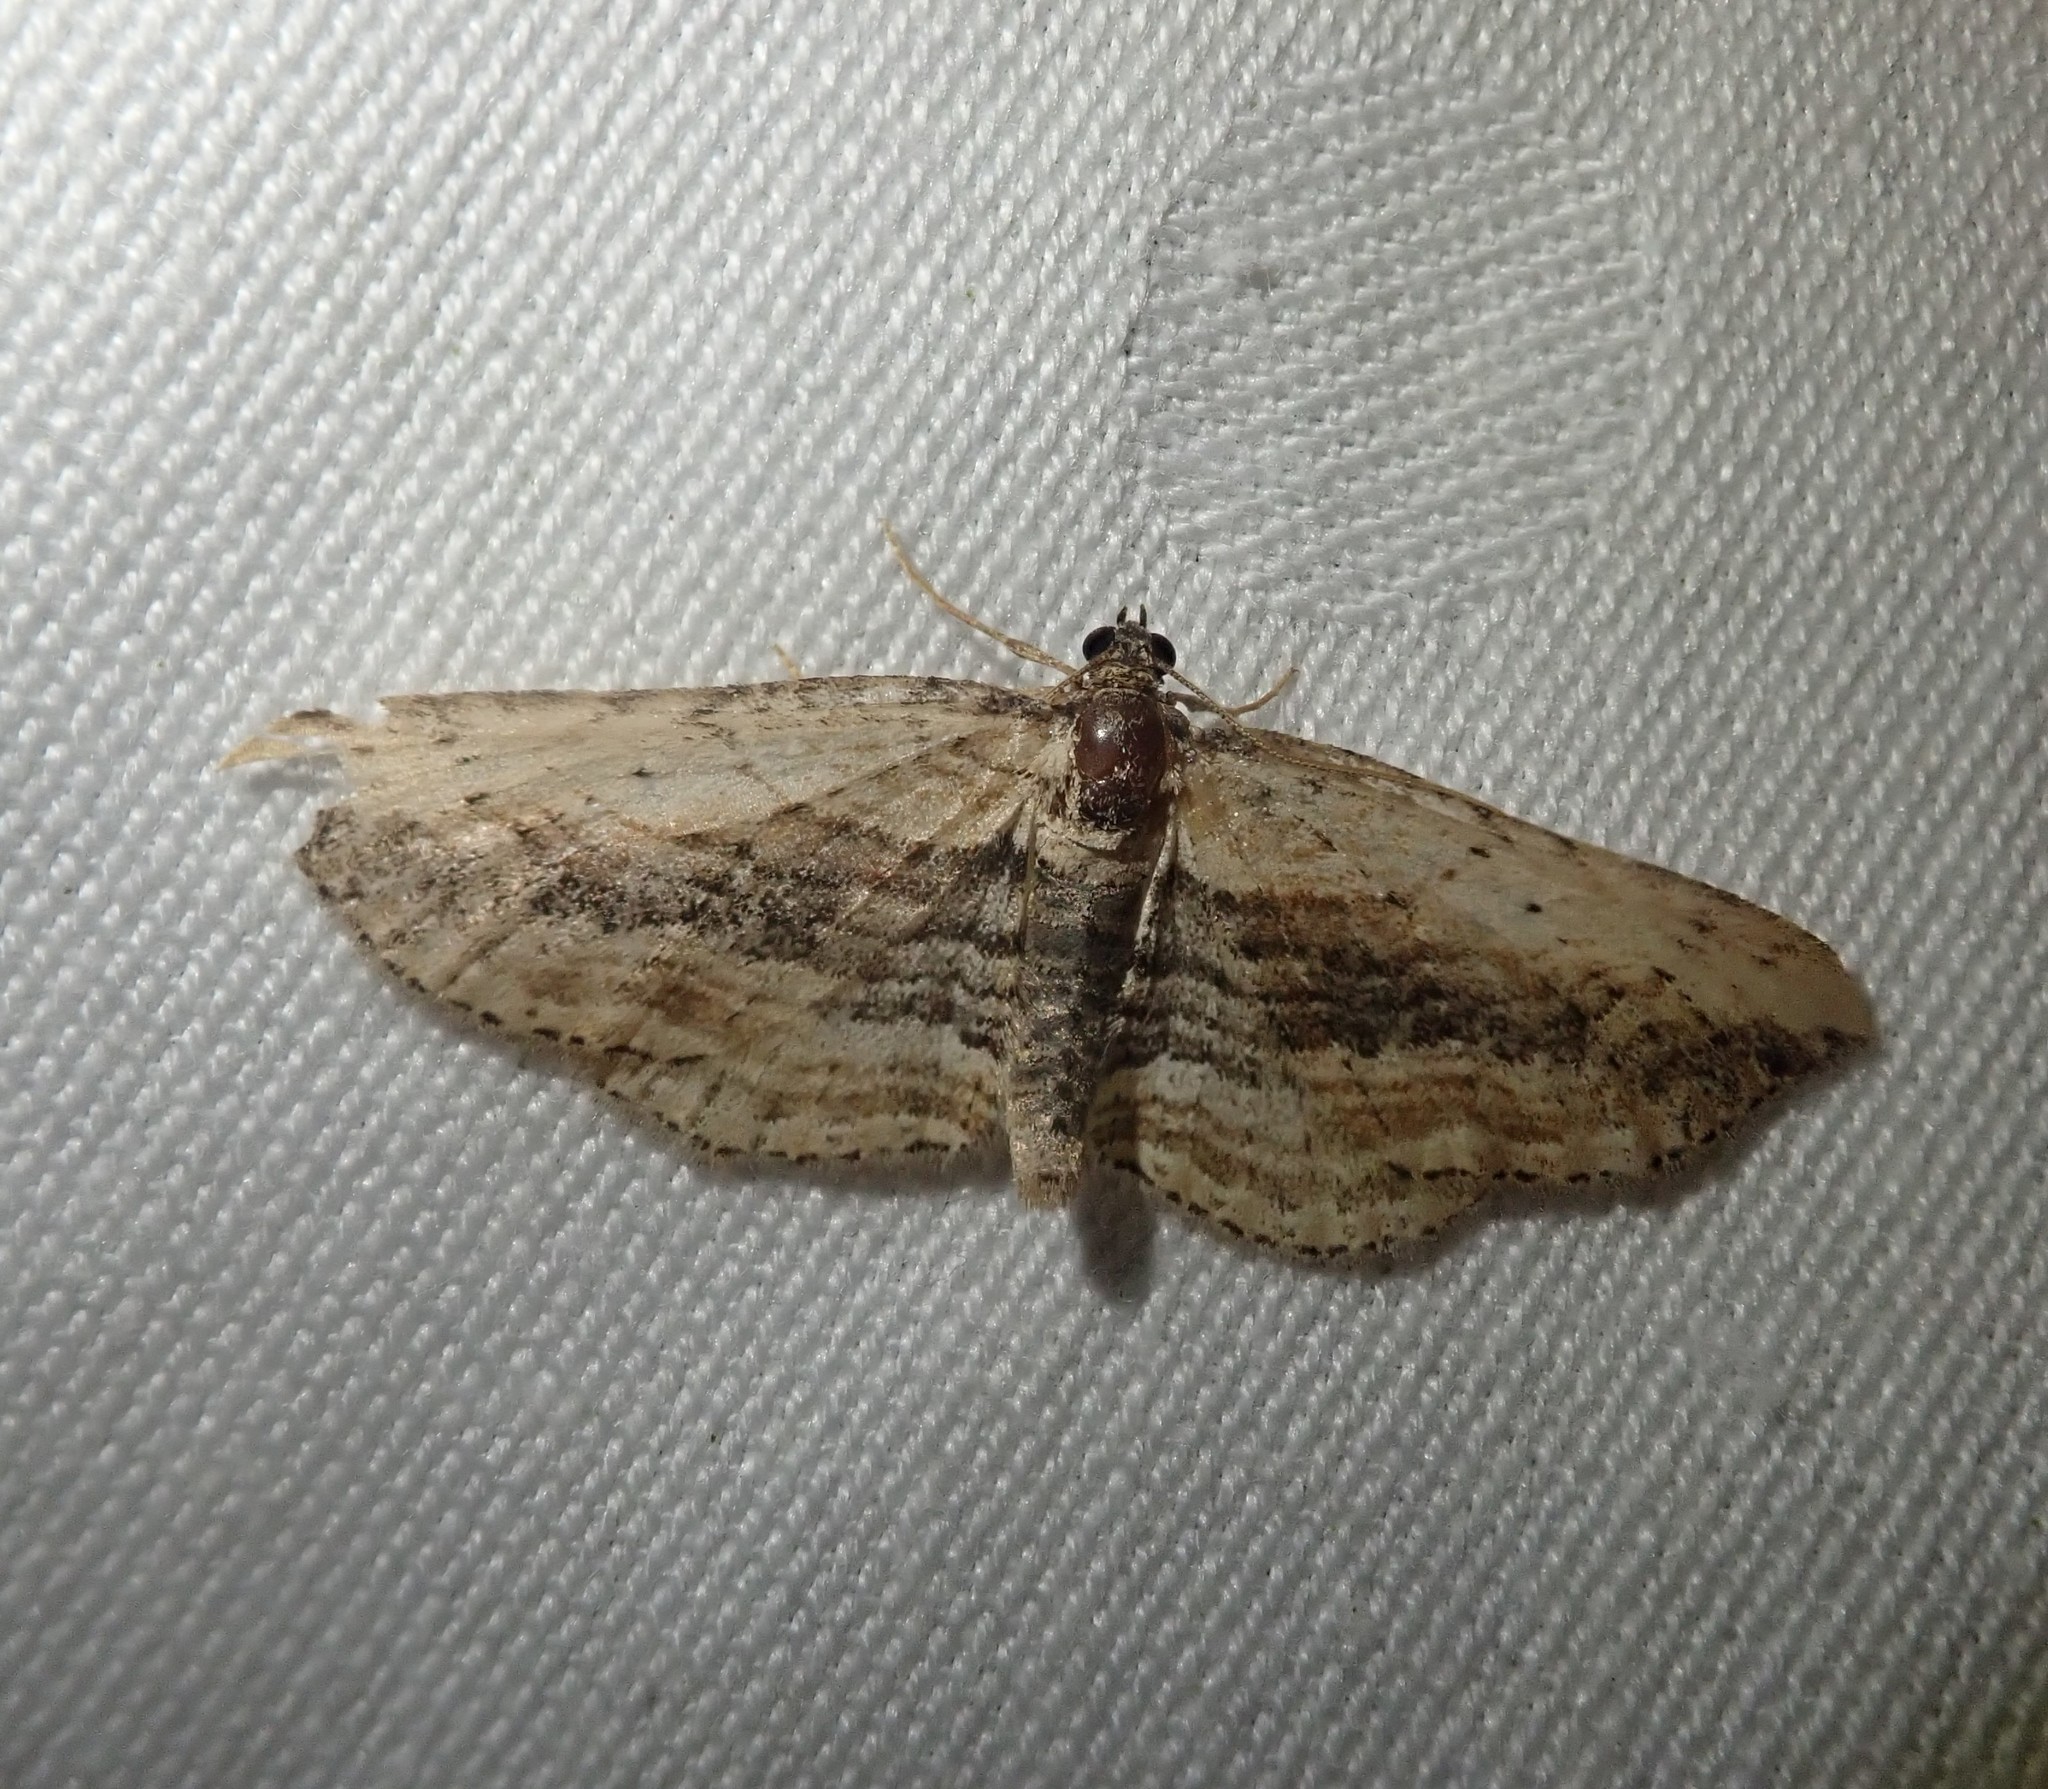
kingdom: Animalia
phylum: Arthropoda
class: Insecta
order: Lepidoptera
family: Geometridae
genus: Horisme
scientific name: Horisme vitalbata
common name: Small waved umber
